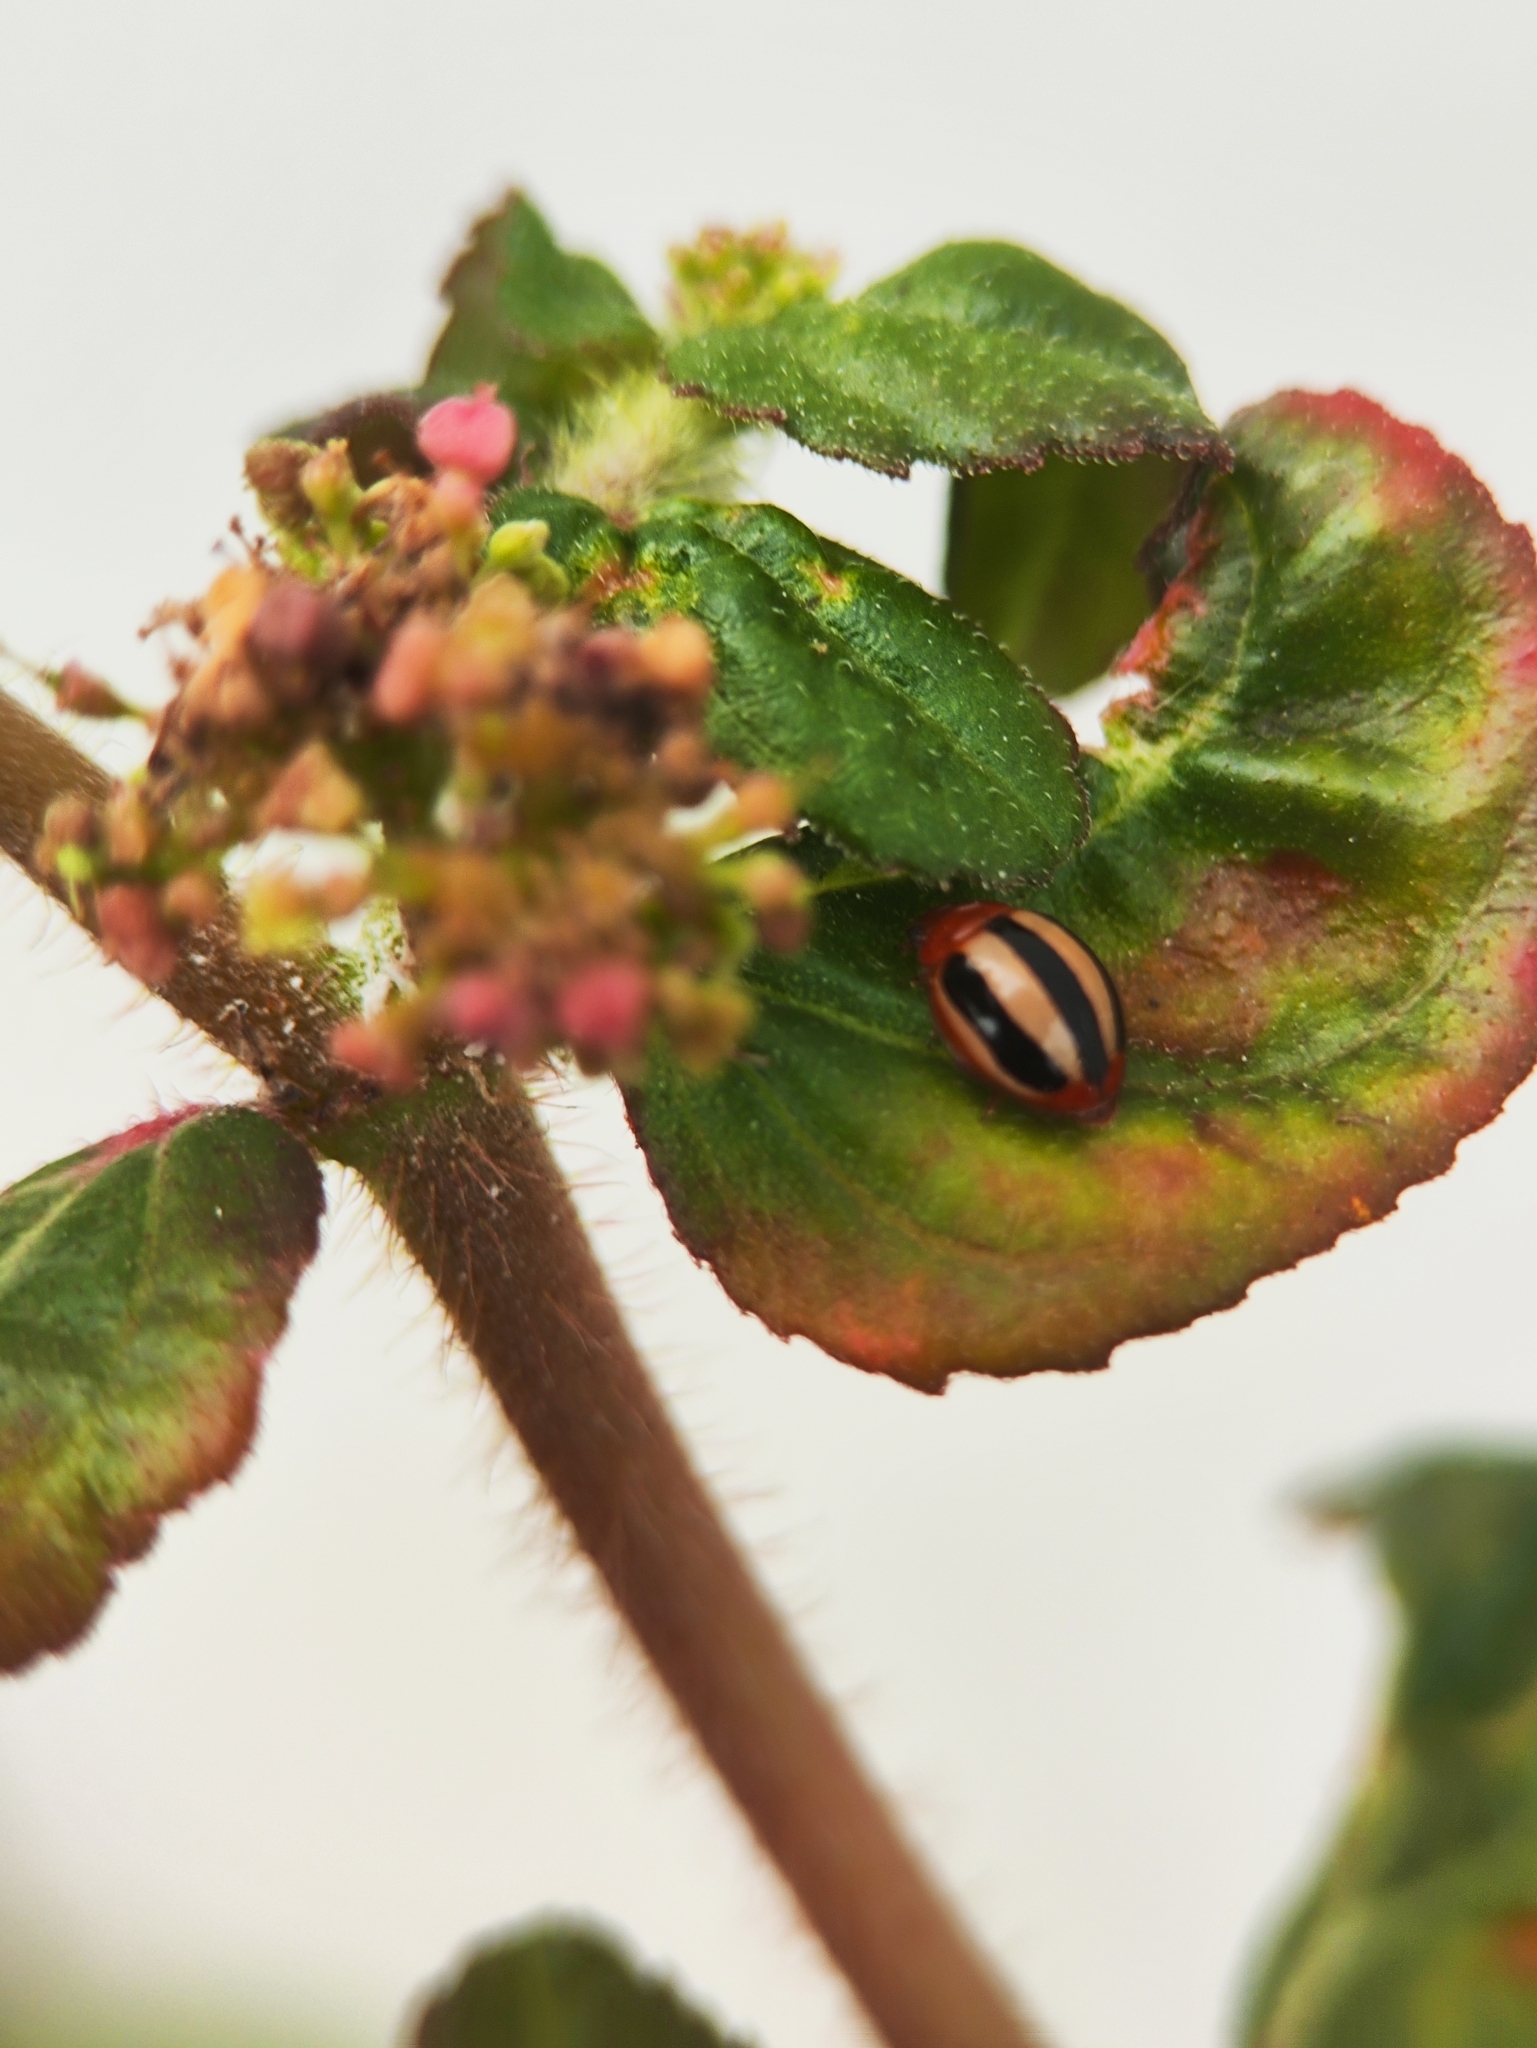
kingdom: Animalia
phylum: Arthropoda
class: Insecta
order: Coleoptera
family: Coccinellidae
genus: Brumoides
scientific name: Brumoides suturalis
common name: Threestriped lady beetle
